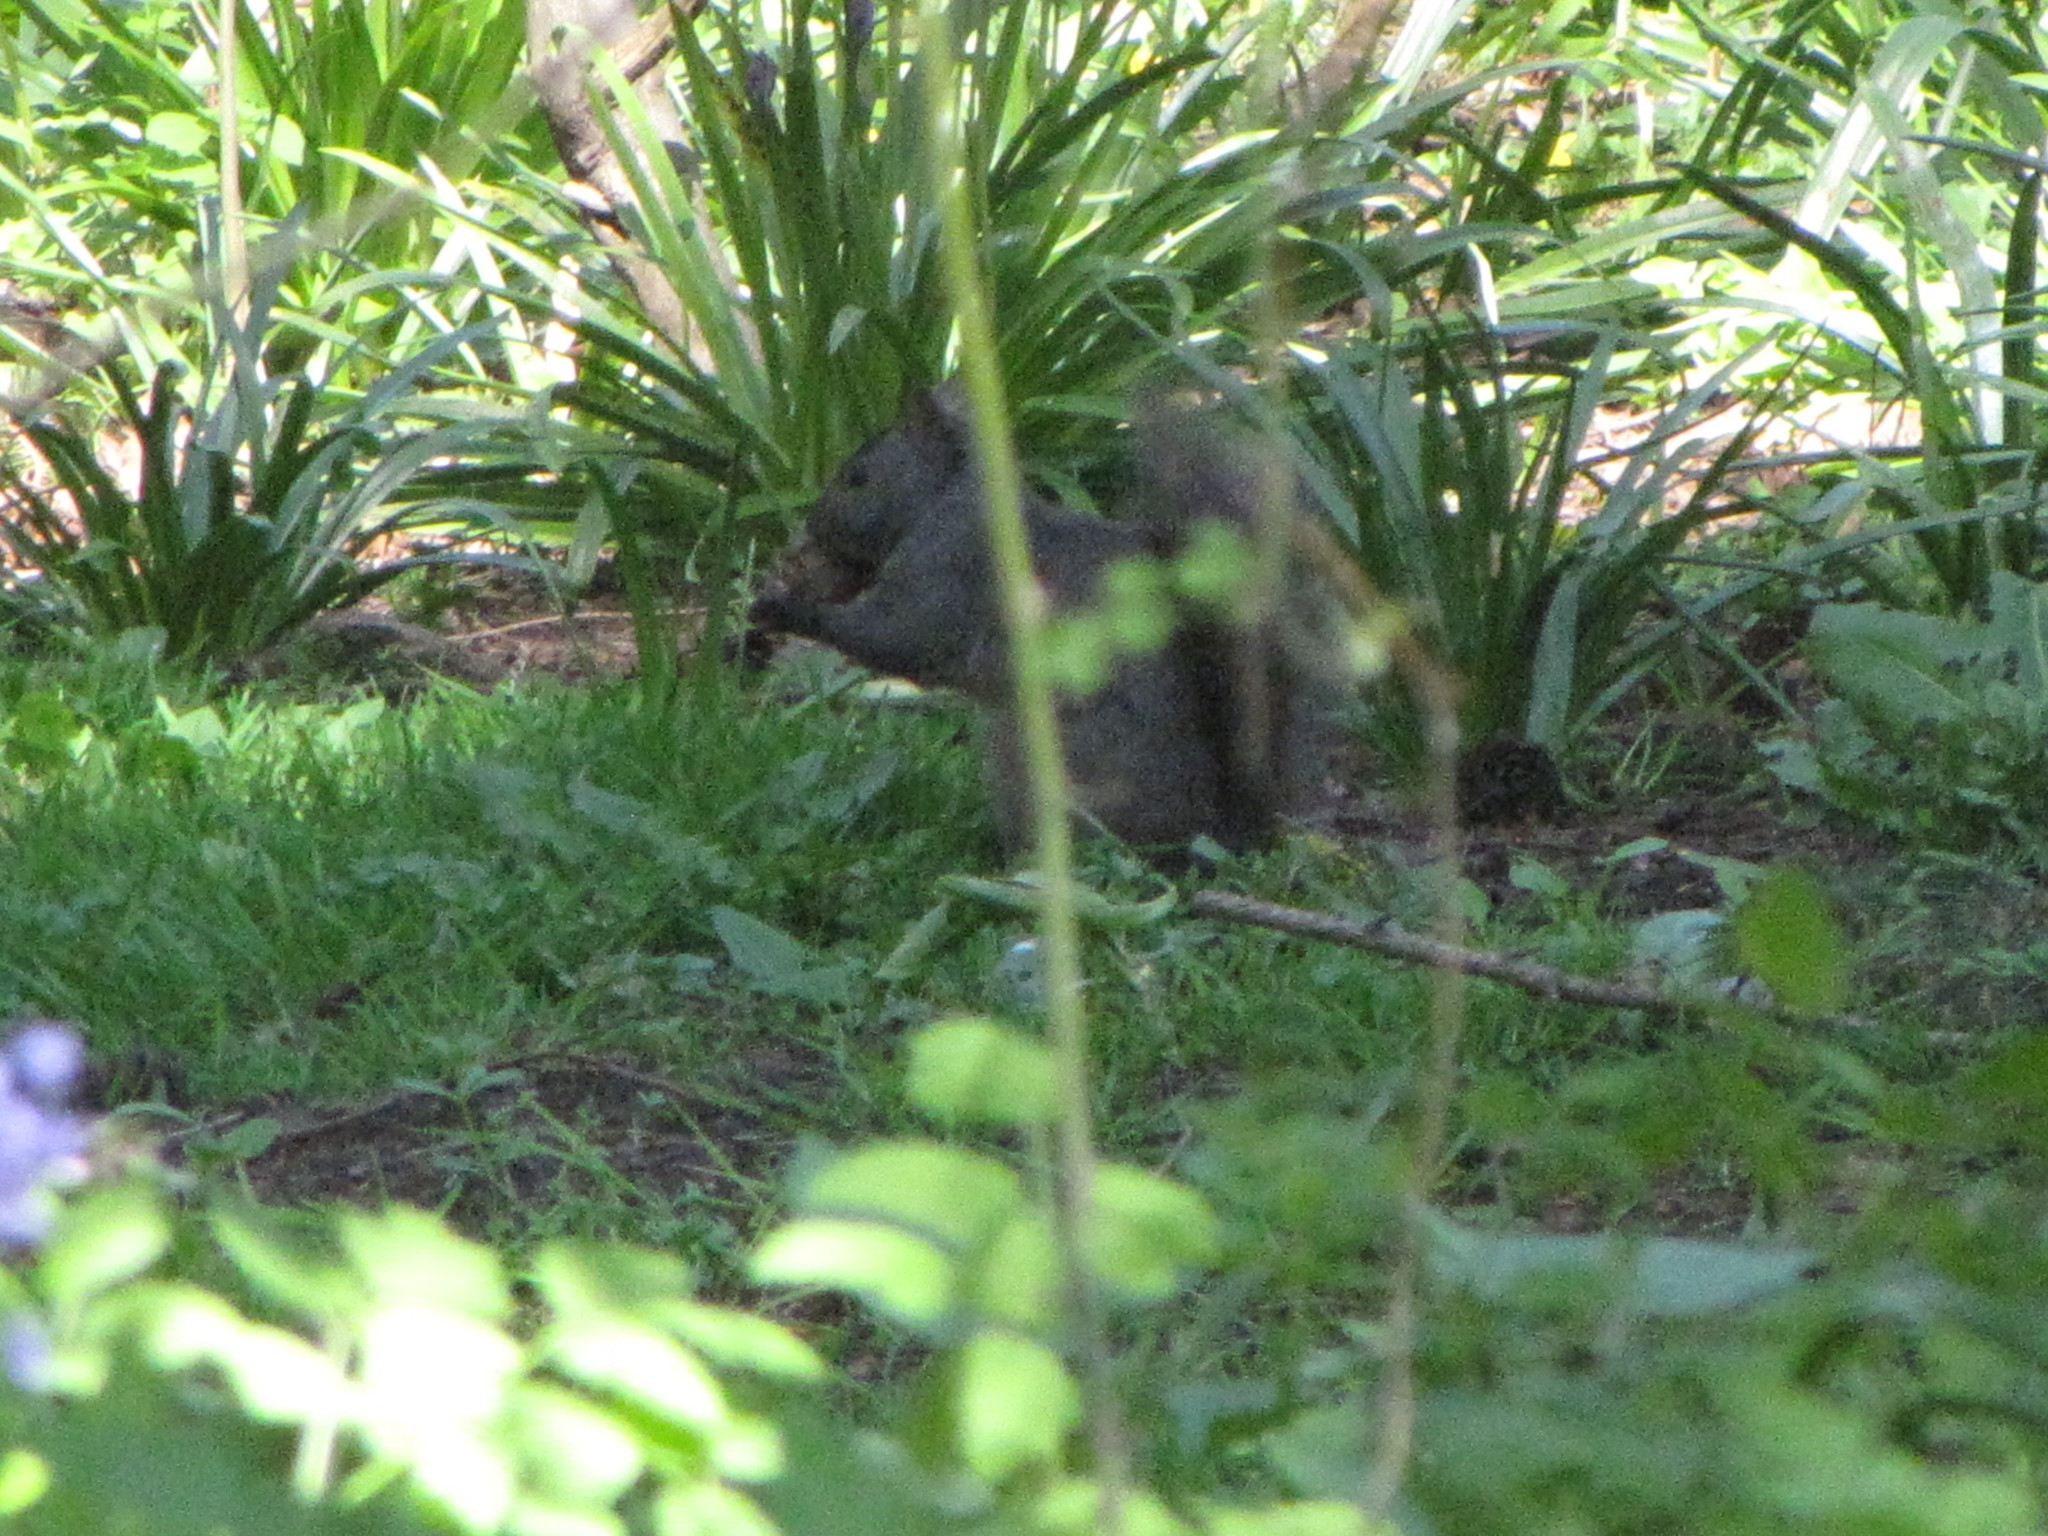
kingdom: Animalia
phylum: Chordata
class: Mammalia
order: Rodentia
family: Sciuridae
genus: Sciurus
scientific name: Sciurus carolinensis
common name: Eastern gray squirrel
